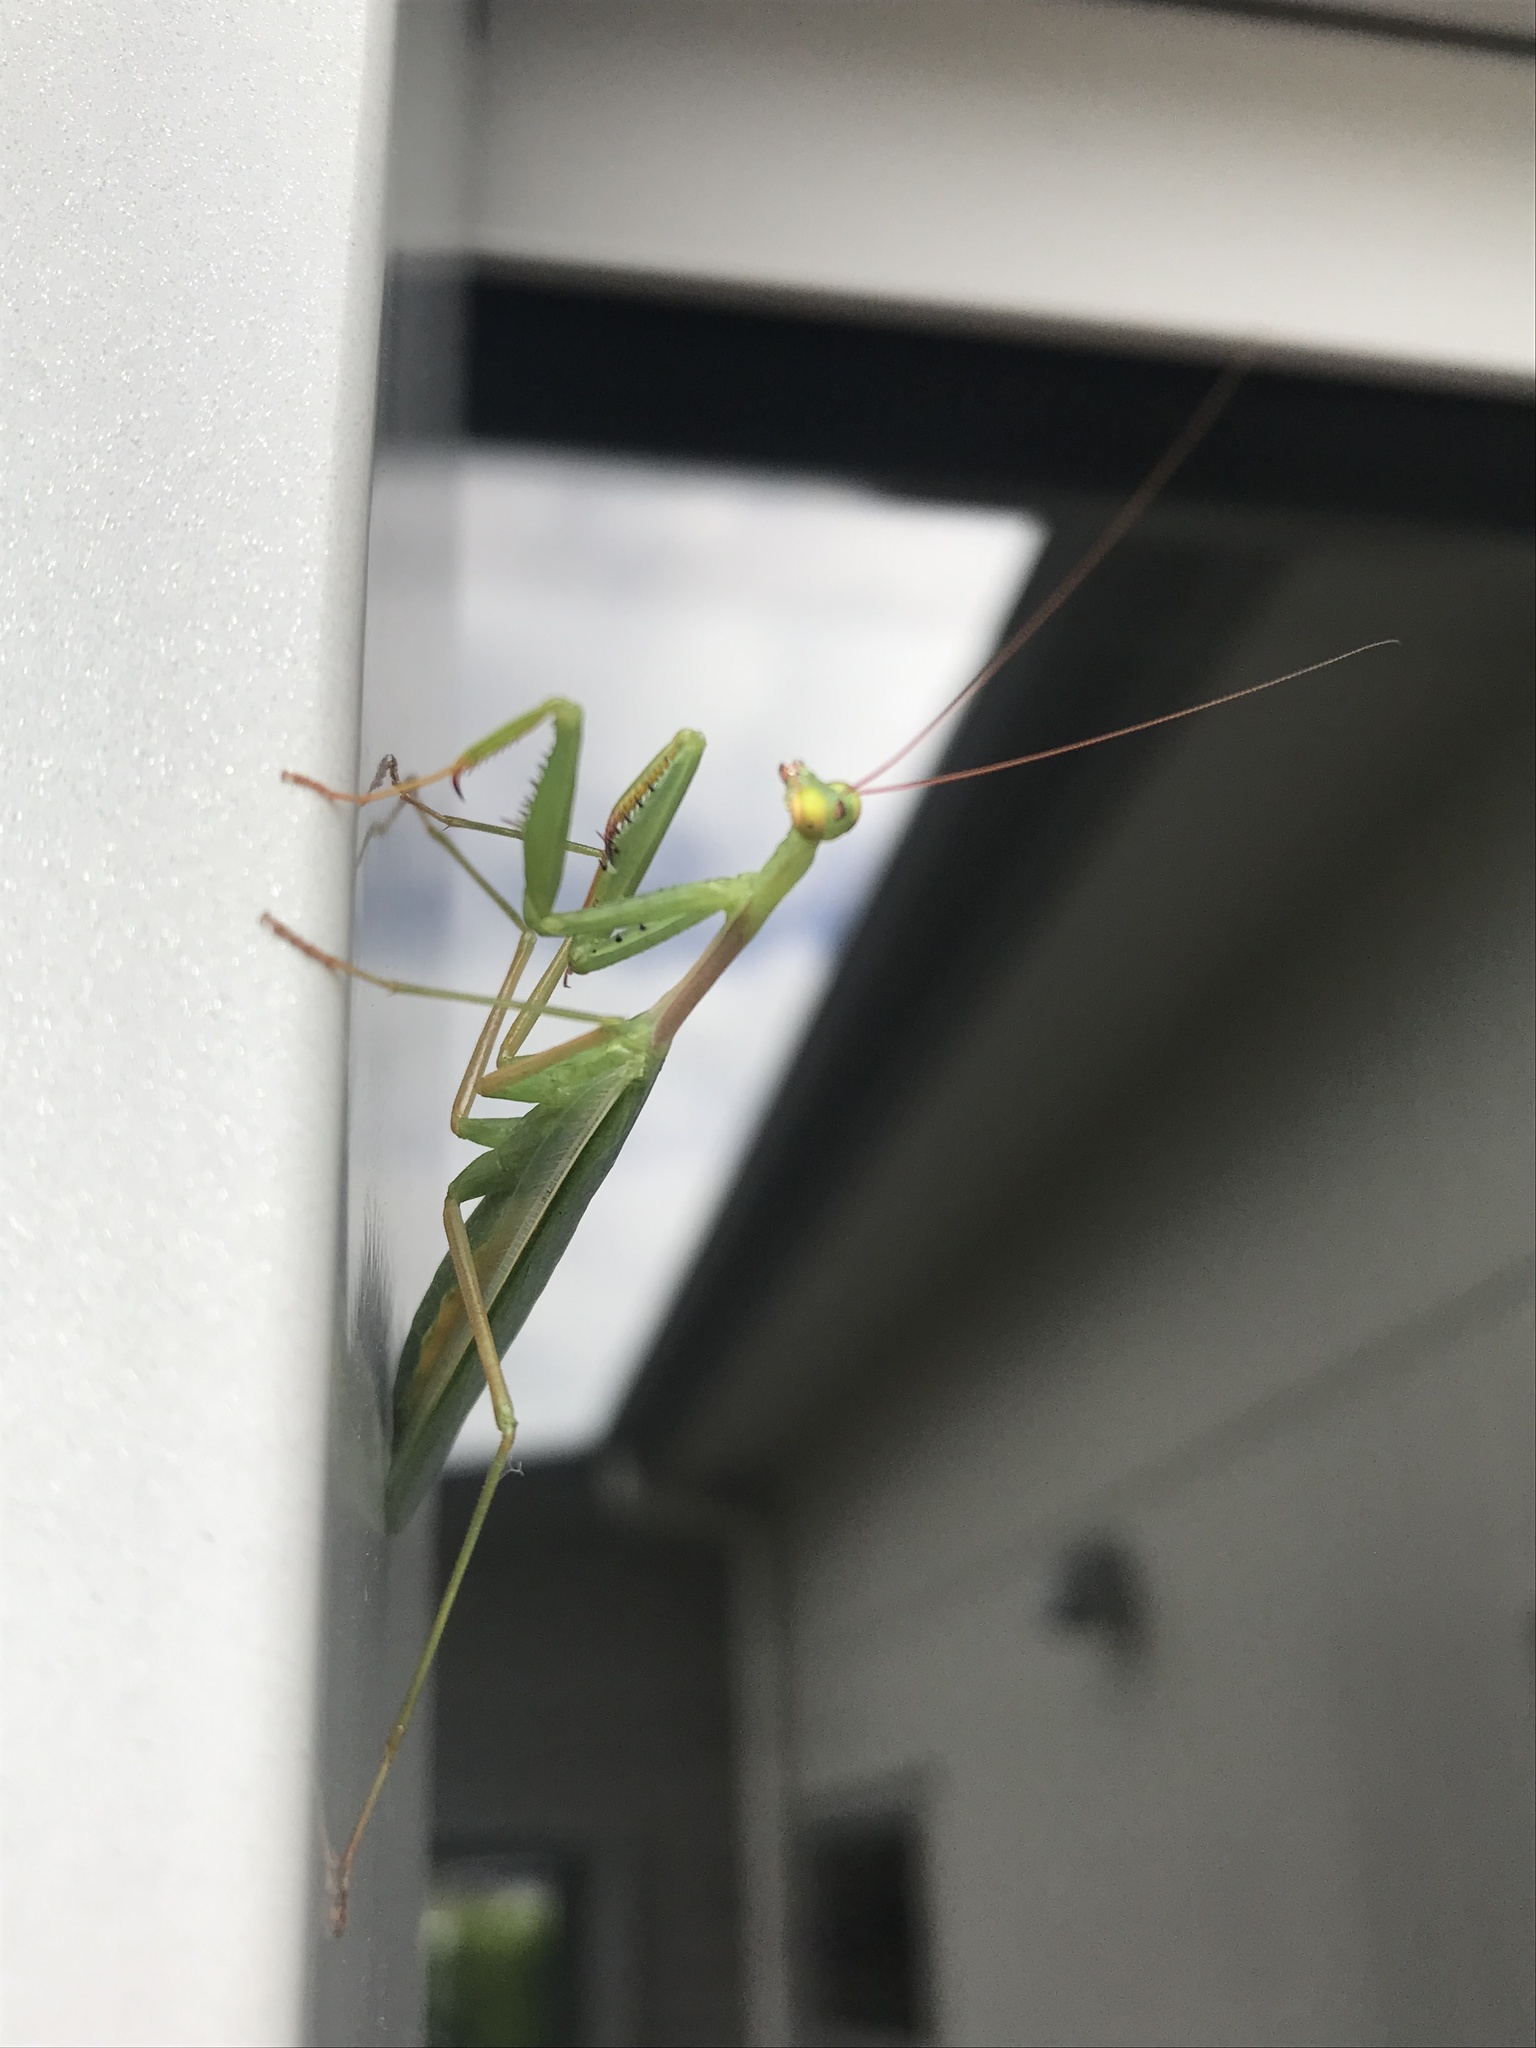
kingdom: Animalia
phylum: Arthropoda
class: Insecta
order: Mantodea
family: Miomantidae
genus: Miomantis
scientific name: Miomantis caffra
